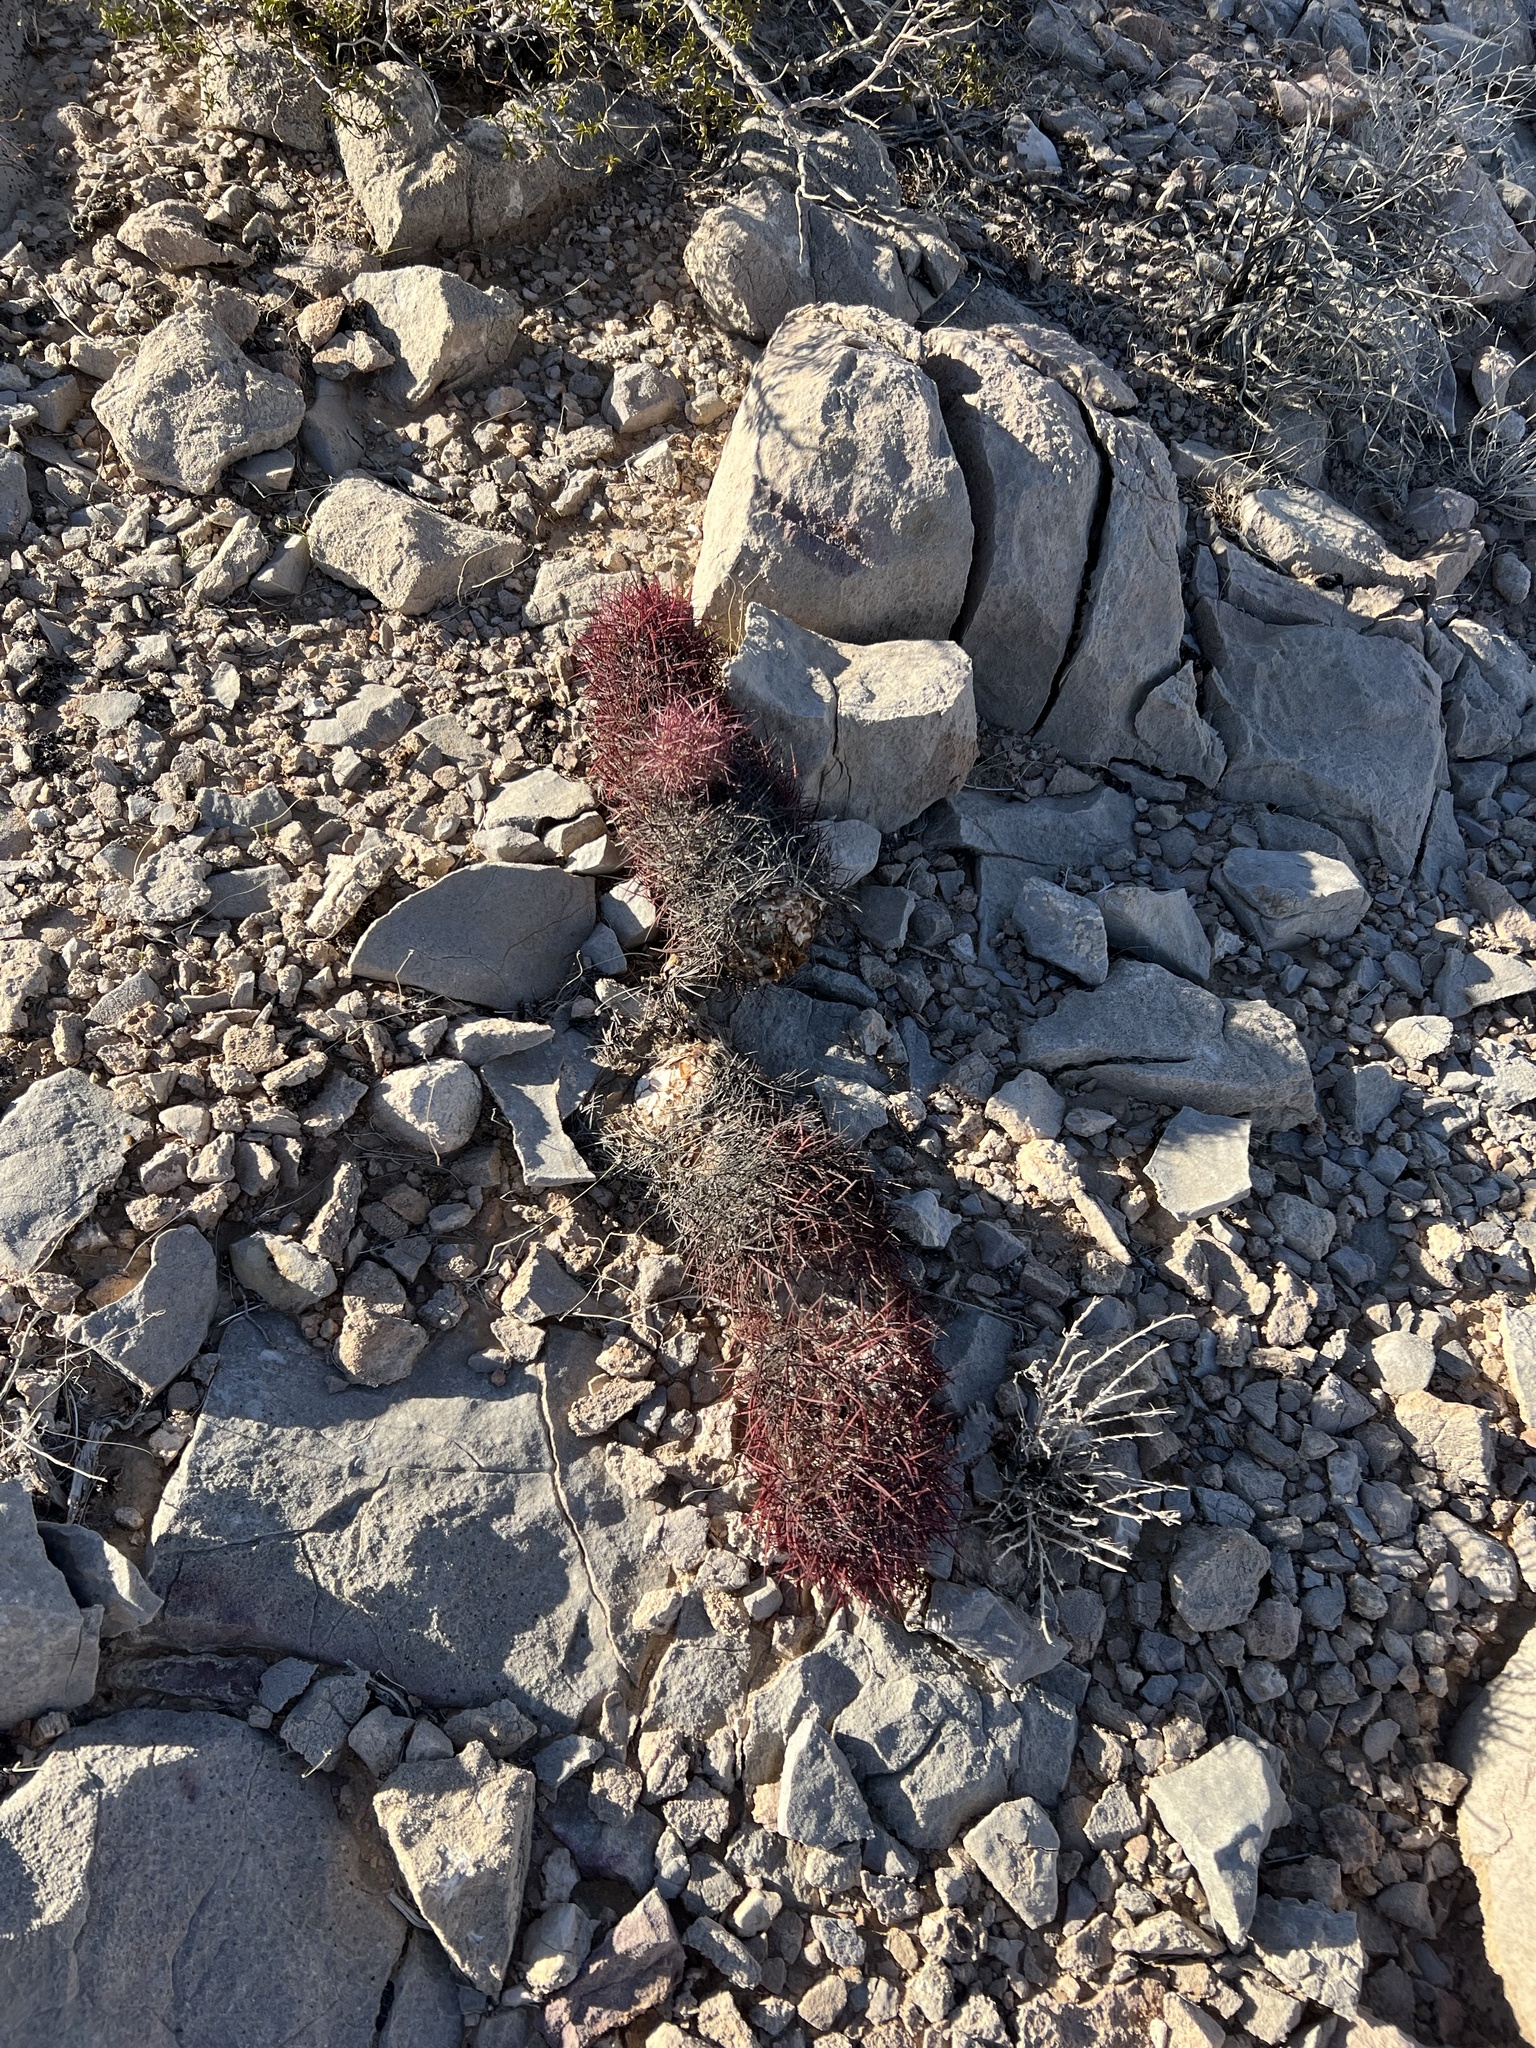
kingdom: Plantae
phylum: Tracheophyta
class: Magnoliopsida
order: Caryophyllales
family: Cactaceae
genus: Sclerocactus
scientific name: Sclerocactus johnsonii
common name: Eight-spine fishhook cactus
